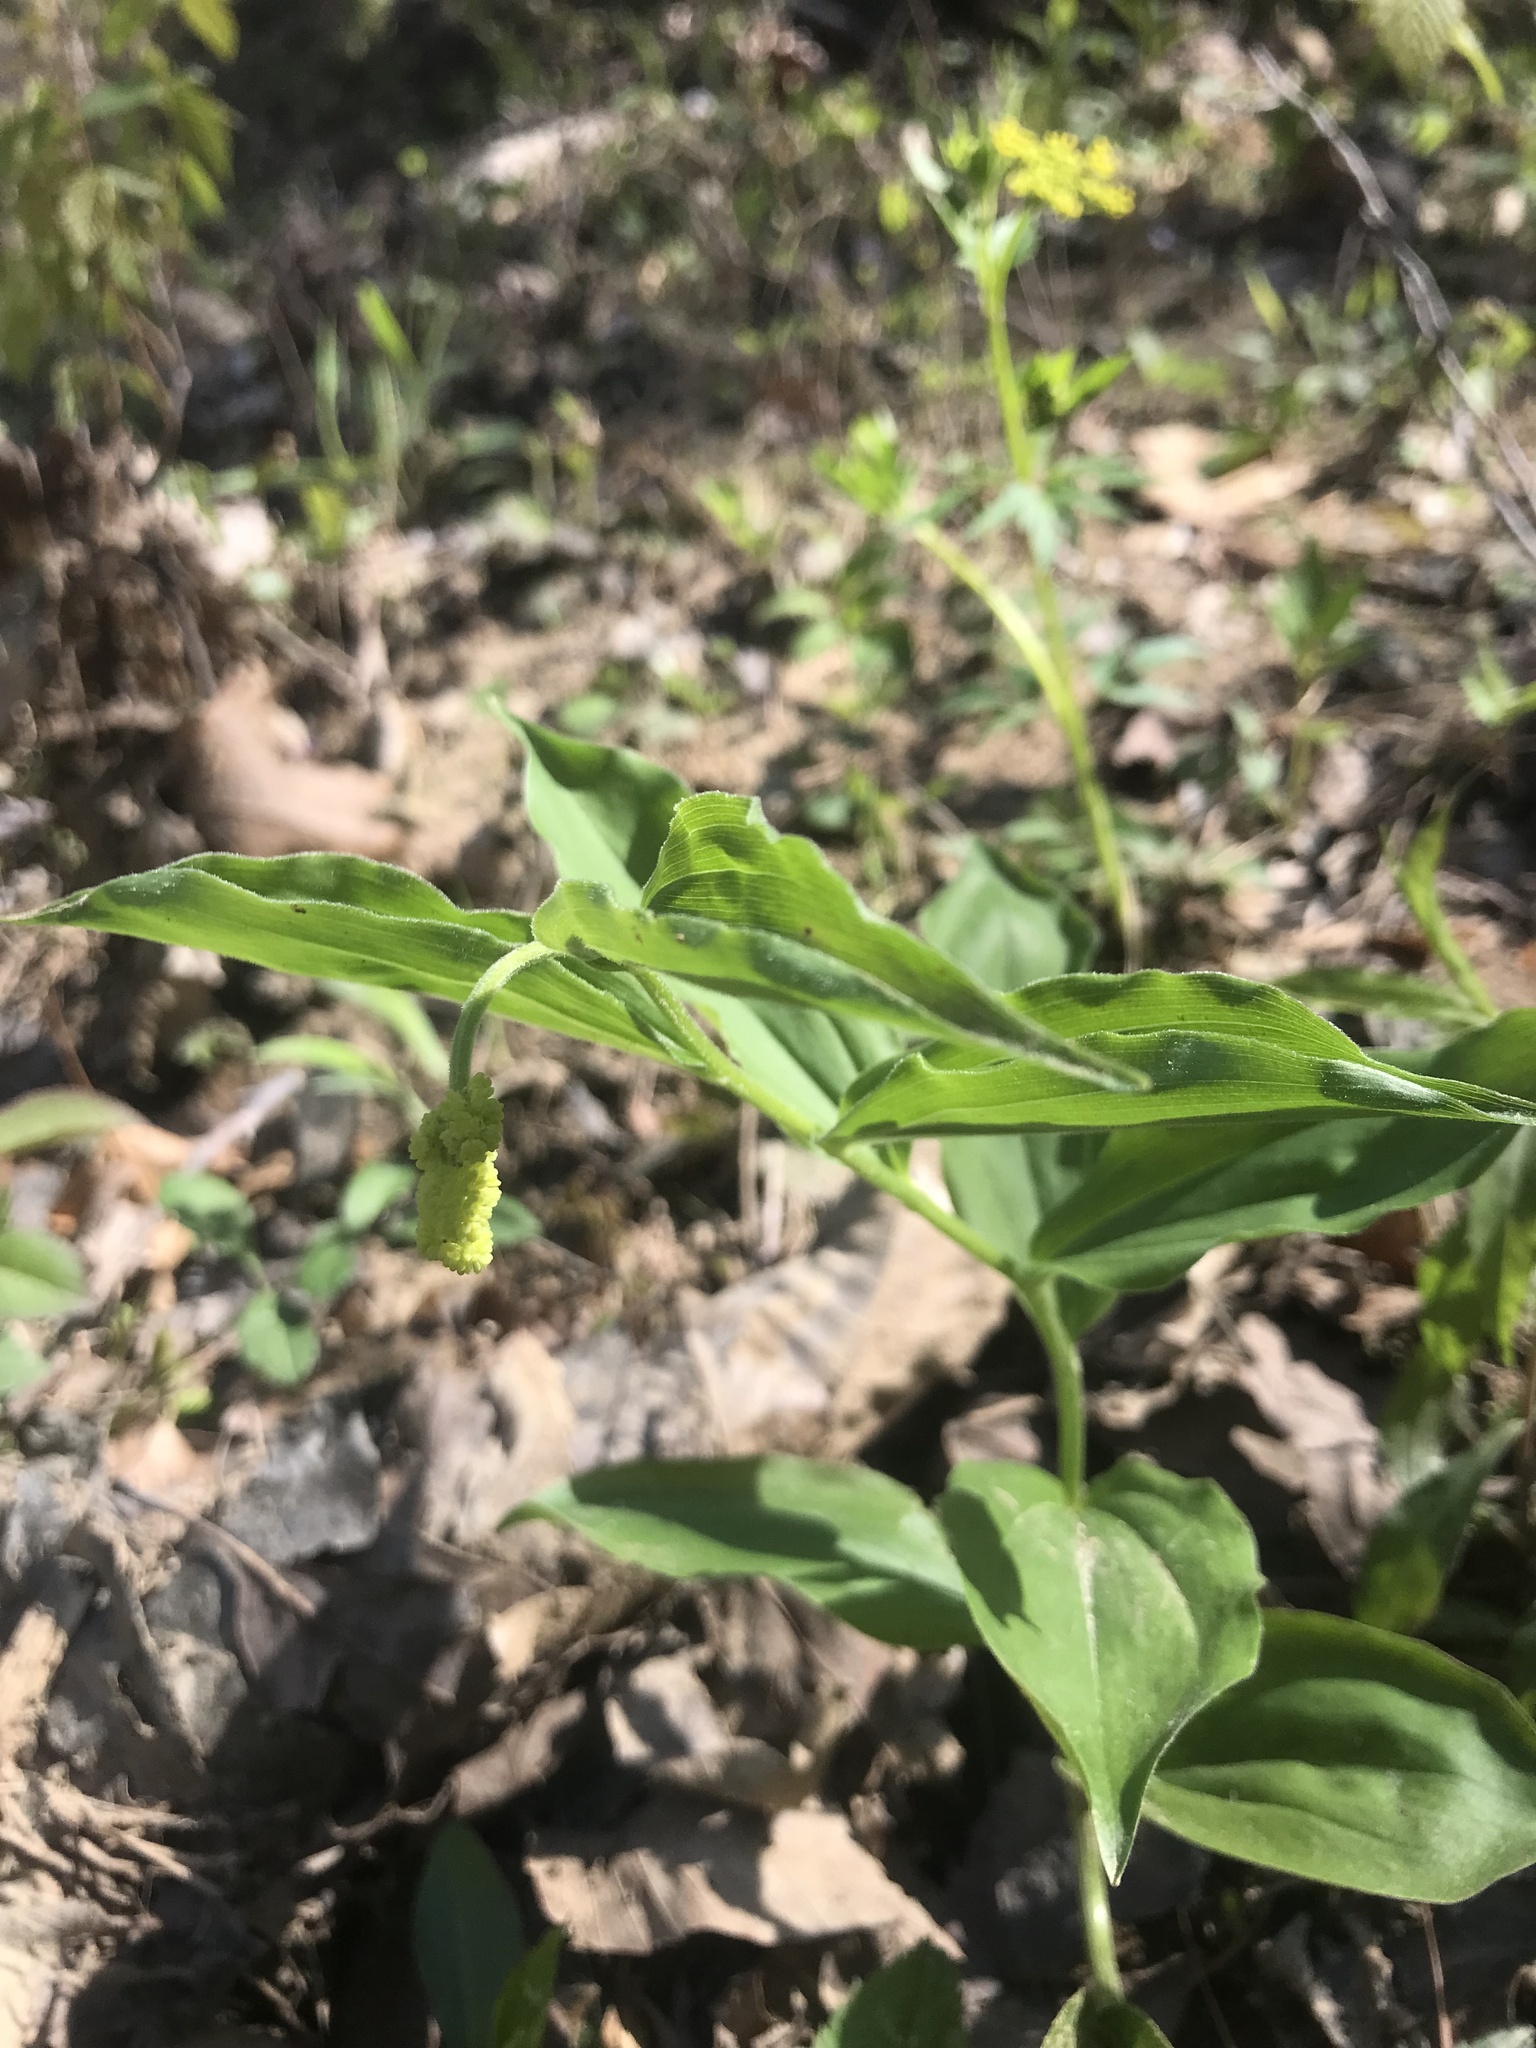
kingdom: Plantae
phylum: Tracheophyta
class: Liliopsida
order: Asparagales
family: Asparagaceae
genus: Maianthemum
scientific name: Maianthemum racemosum
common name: False spikenard
